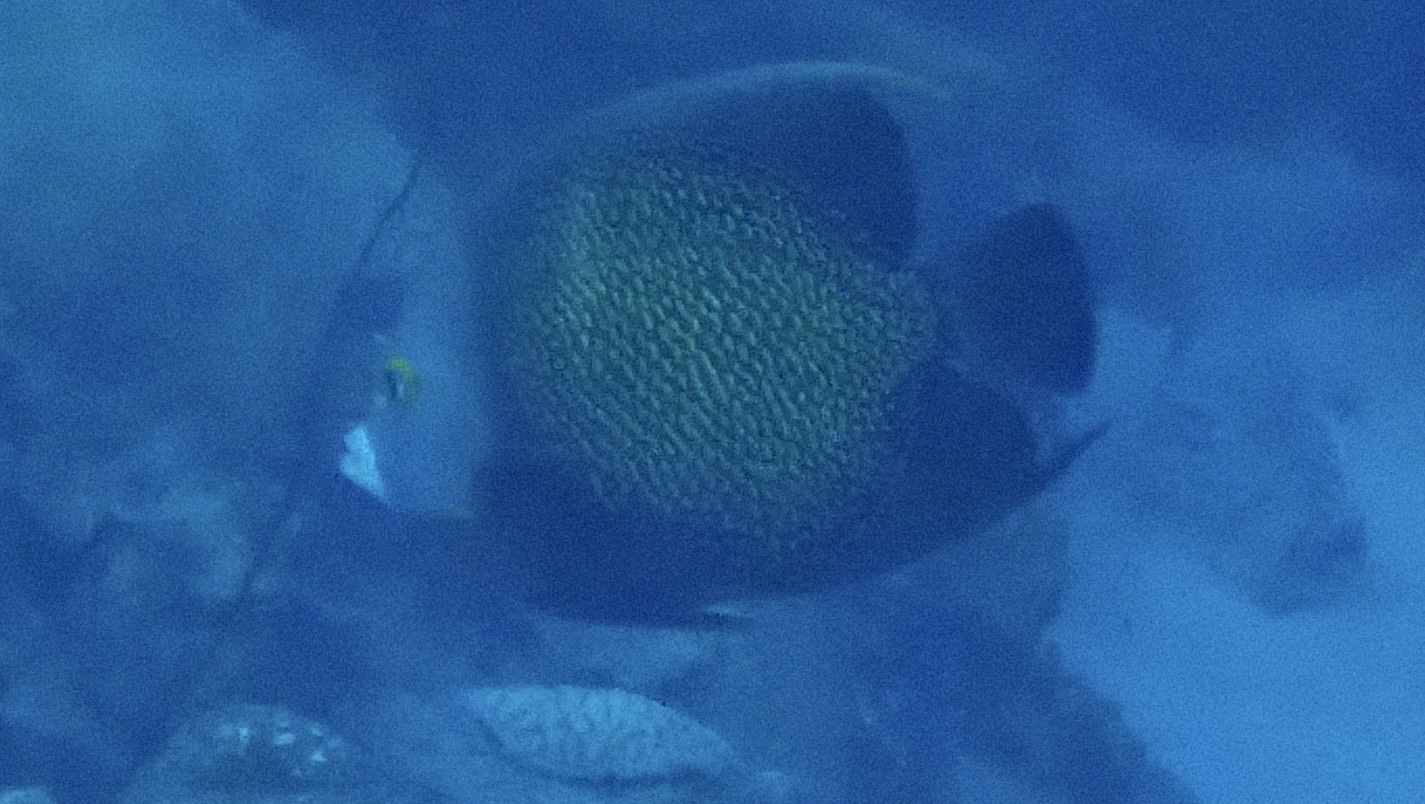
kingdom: Animalia
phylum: Chordata
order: Perciformes
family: Pomacanthidae
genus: Pomacanthus
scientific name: Pomacanthus paru
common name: French angelfish
